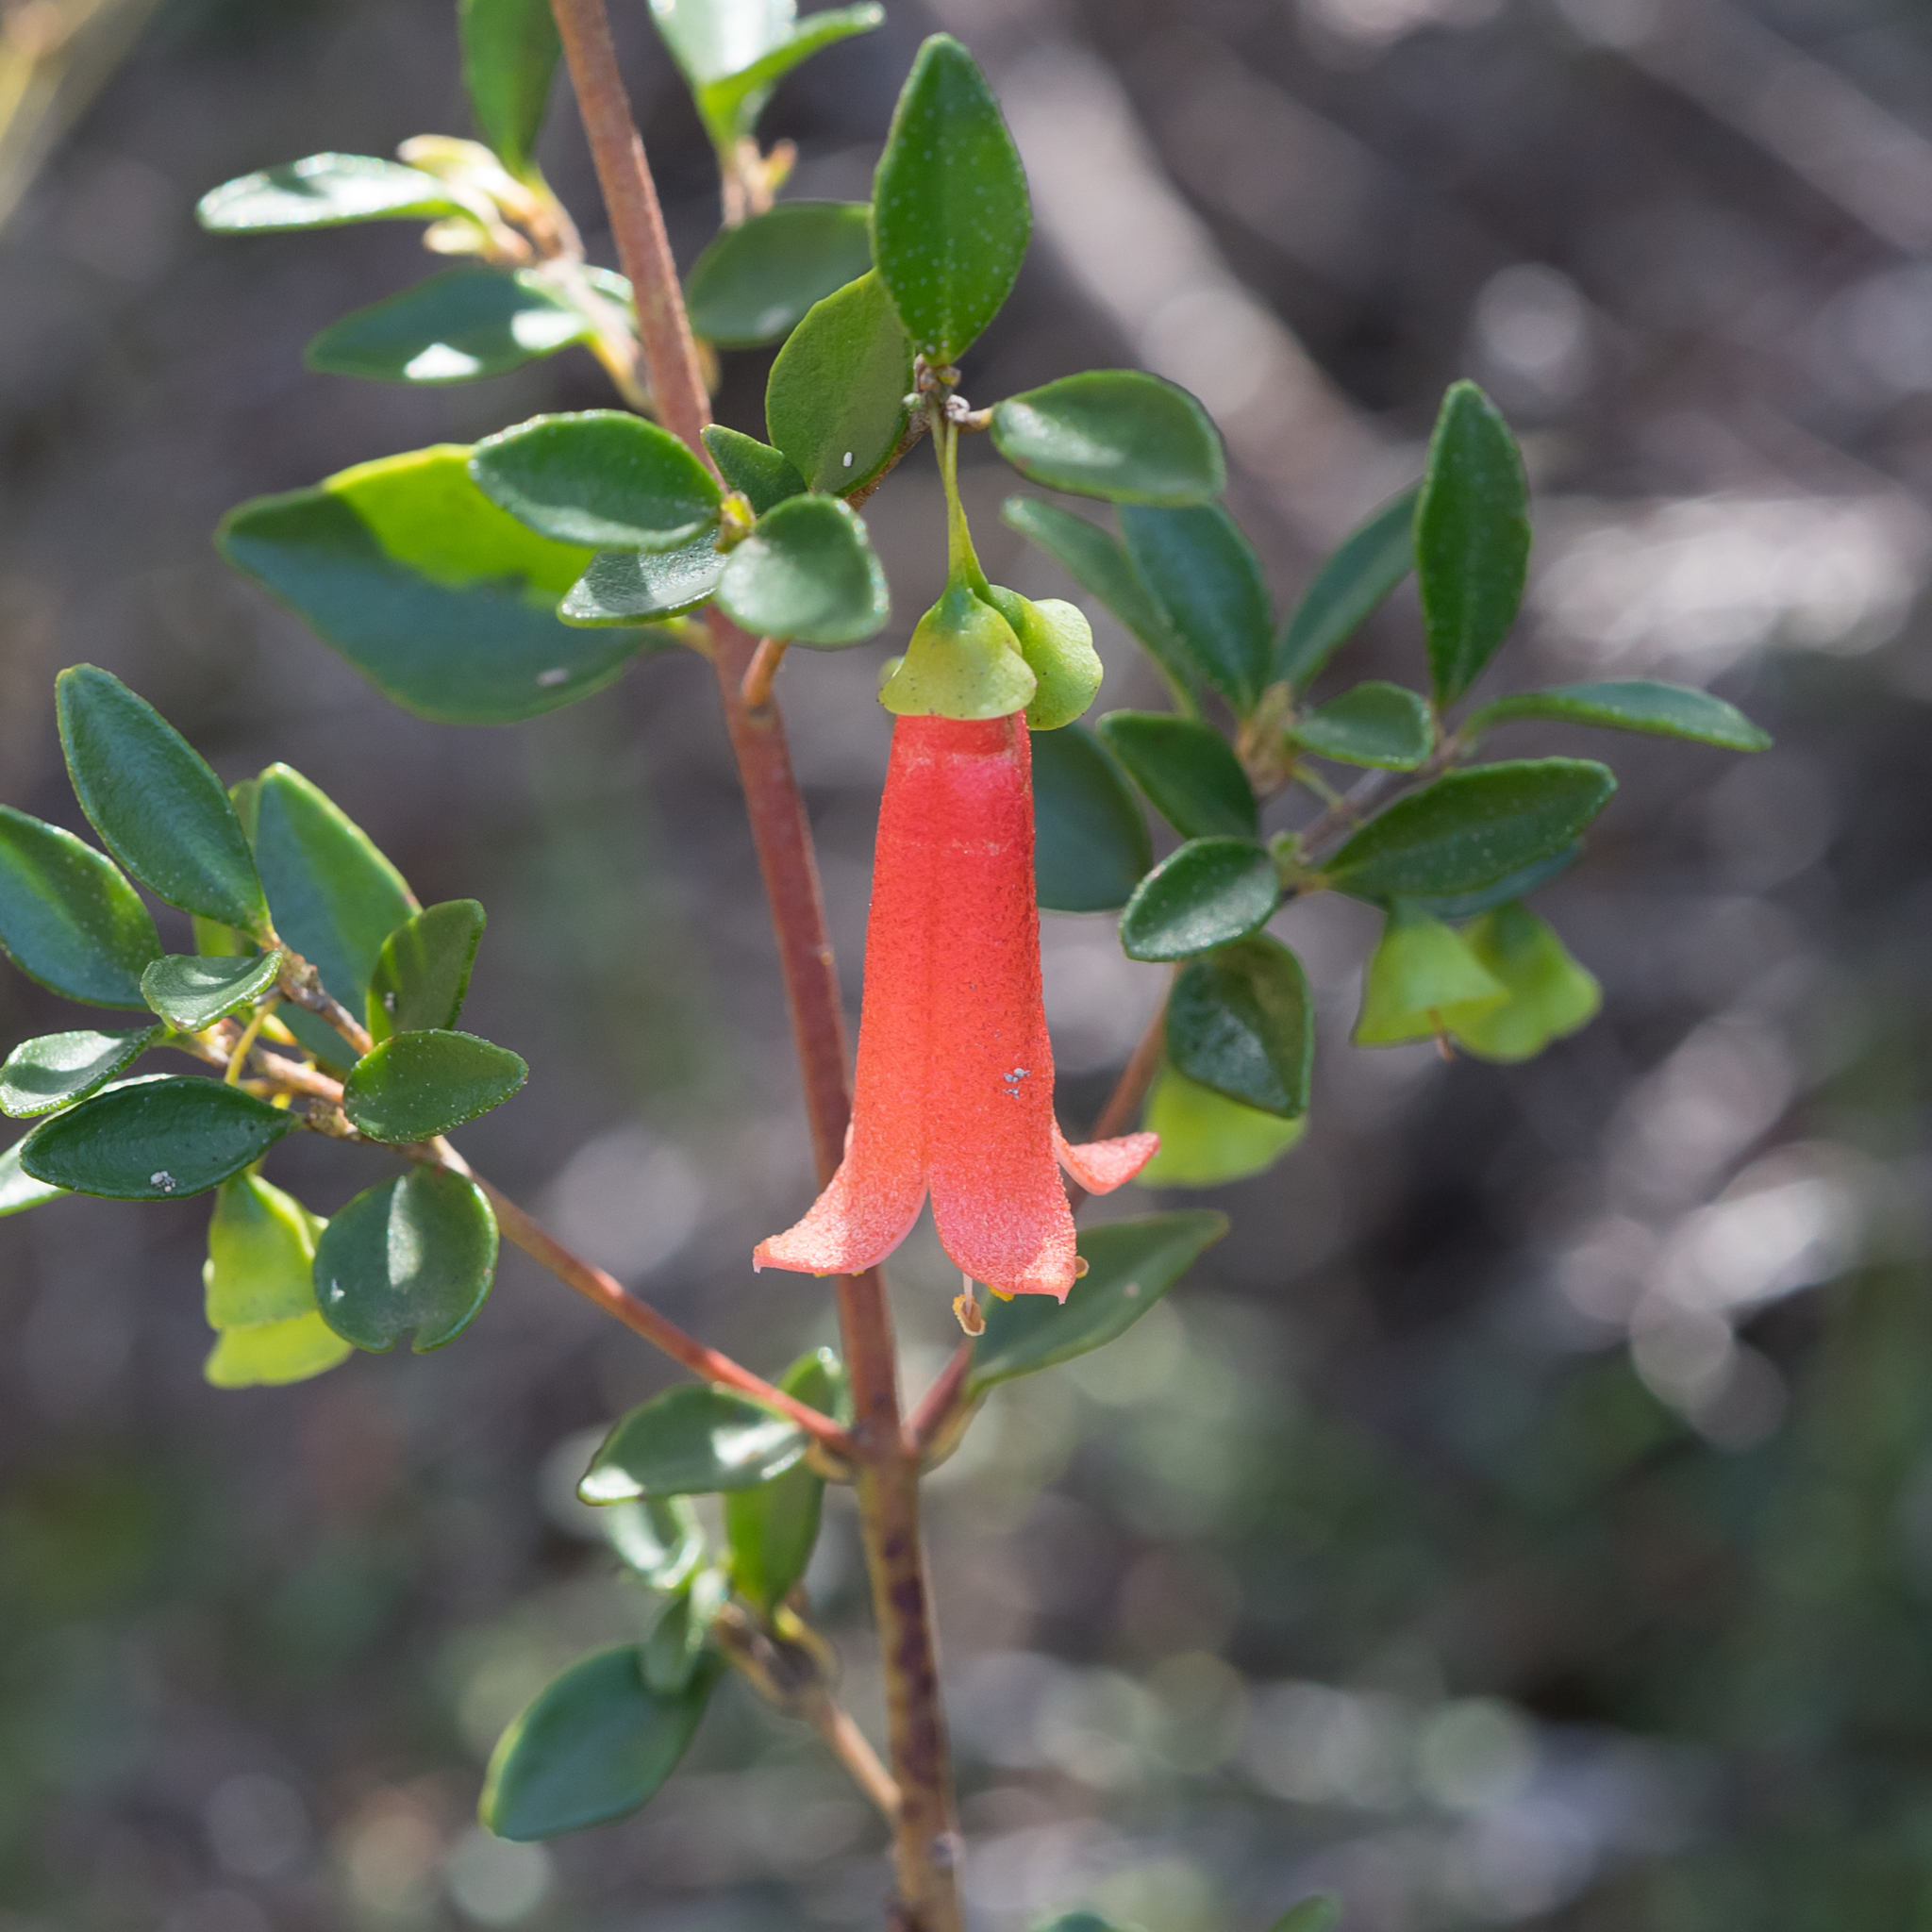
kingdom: Plantae
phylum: Tracheophyta
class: Magnoliopsida
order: Sapindales
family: Rutaceae
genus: Correa
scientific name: Correa pulchella
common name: Salmon correa
